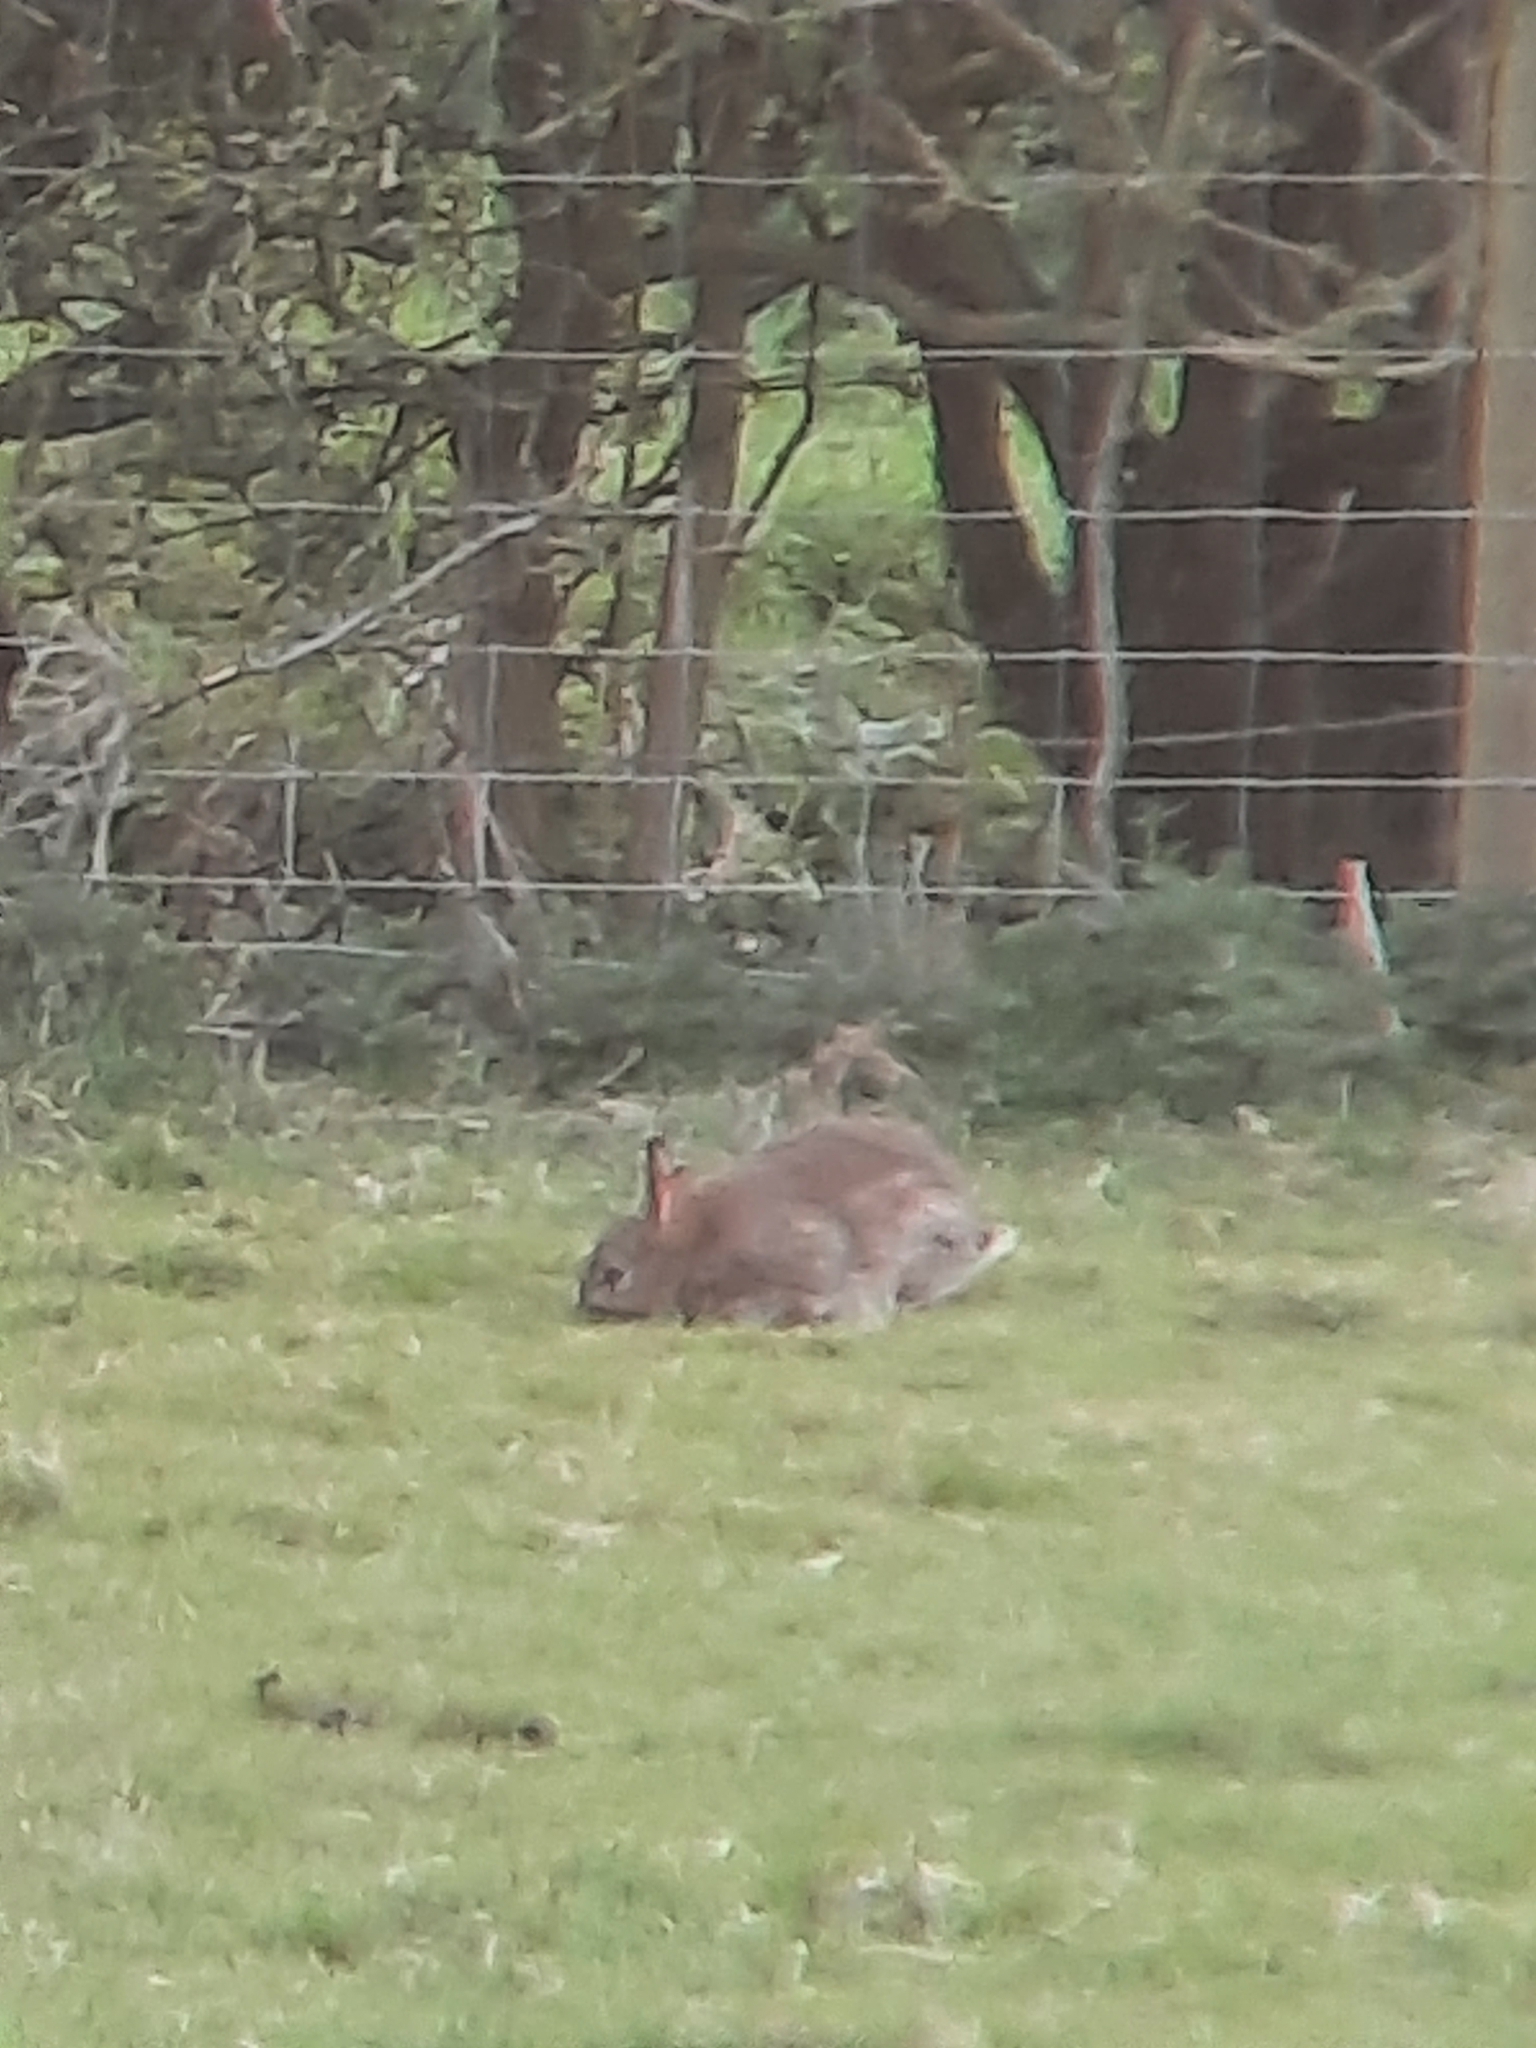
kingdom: Animalia
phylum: Chordata
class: Mammalia
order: Lagomorpha
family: Leporidae
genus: Oryctolagus
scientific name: Oryctolagus cuniculus
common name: European rabbit
